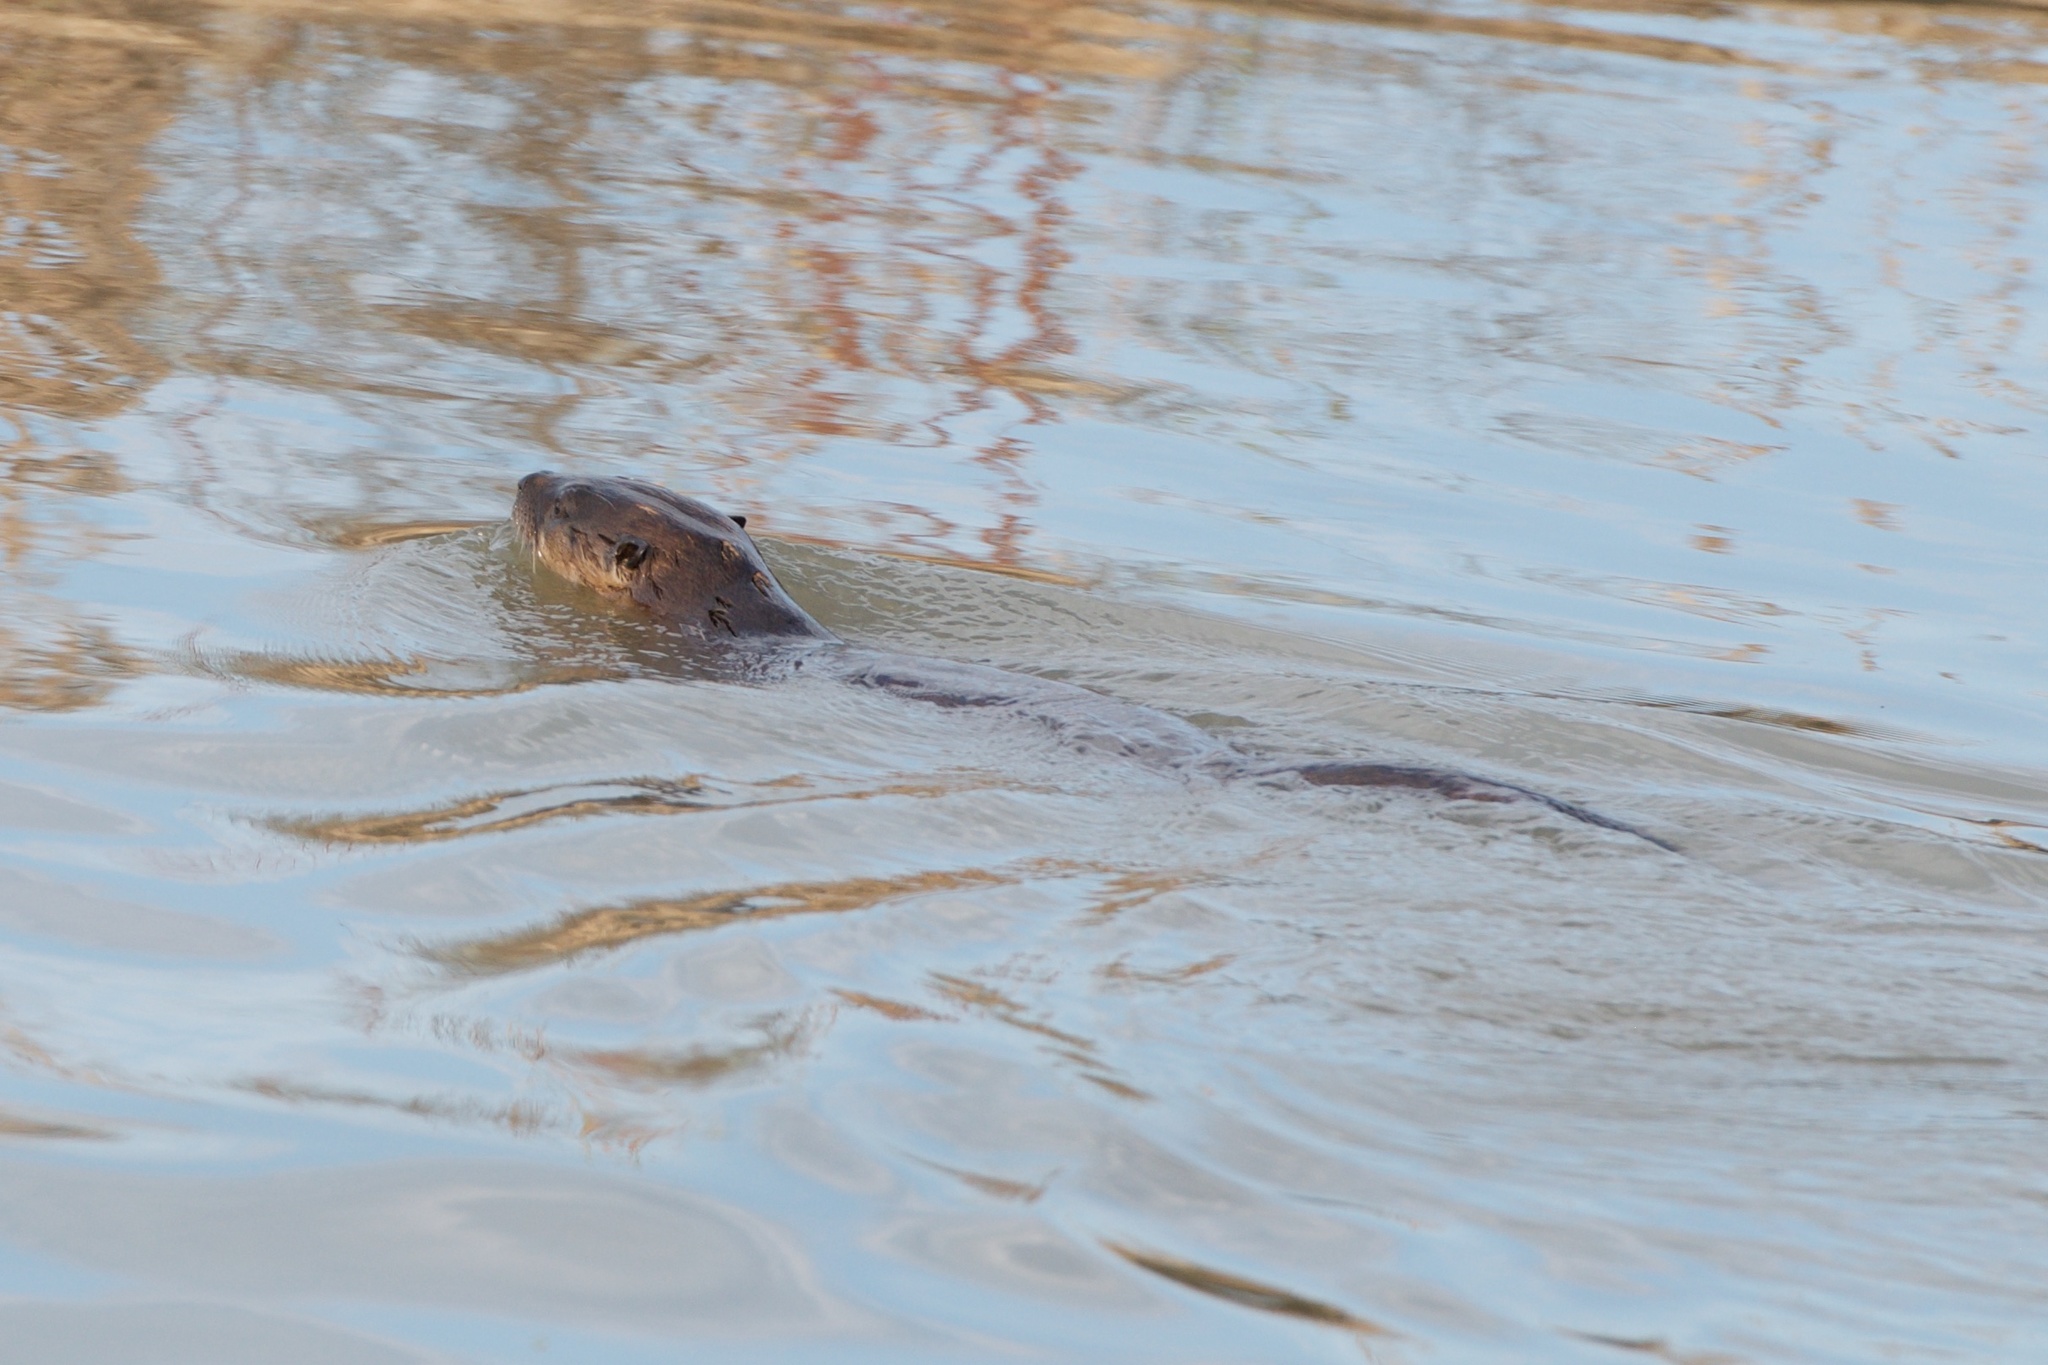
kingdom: Animalia
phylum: Chordata
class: Mammalia
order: Carnivora
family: Mustelidae
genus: Lontra
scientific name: Lontra canadensis
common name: North american river otter
